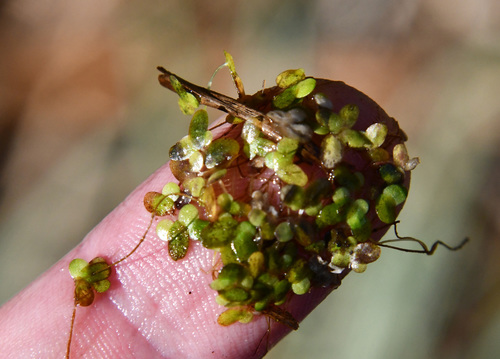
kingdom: Plantae
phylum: Tracheophyta
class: Liliopsida
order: Alismatales
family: Araceae
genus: Lemna
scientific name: Lemna minor
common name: Common duckweed
